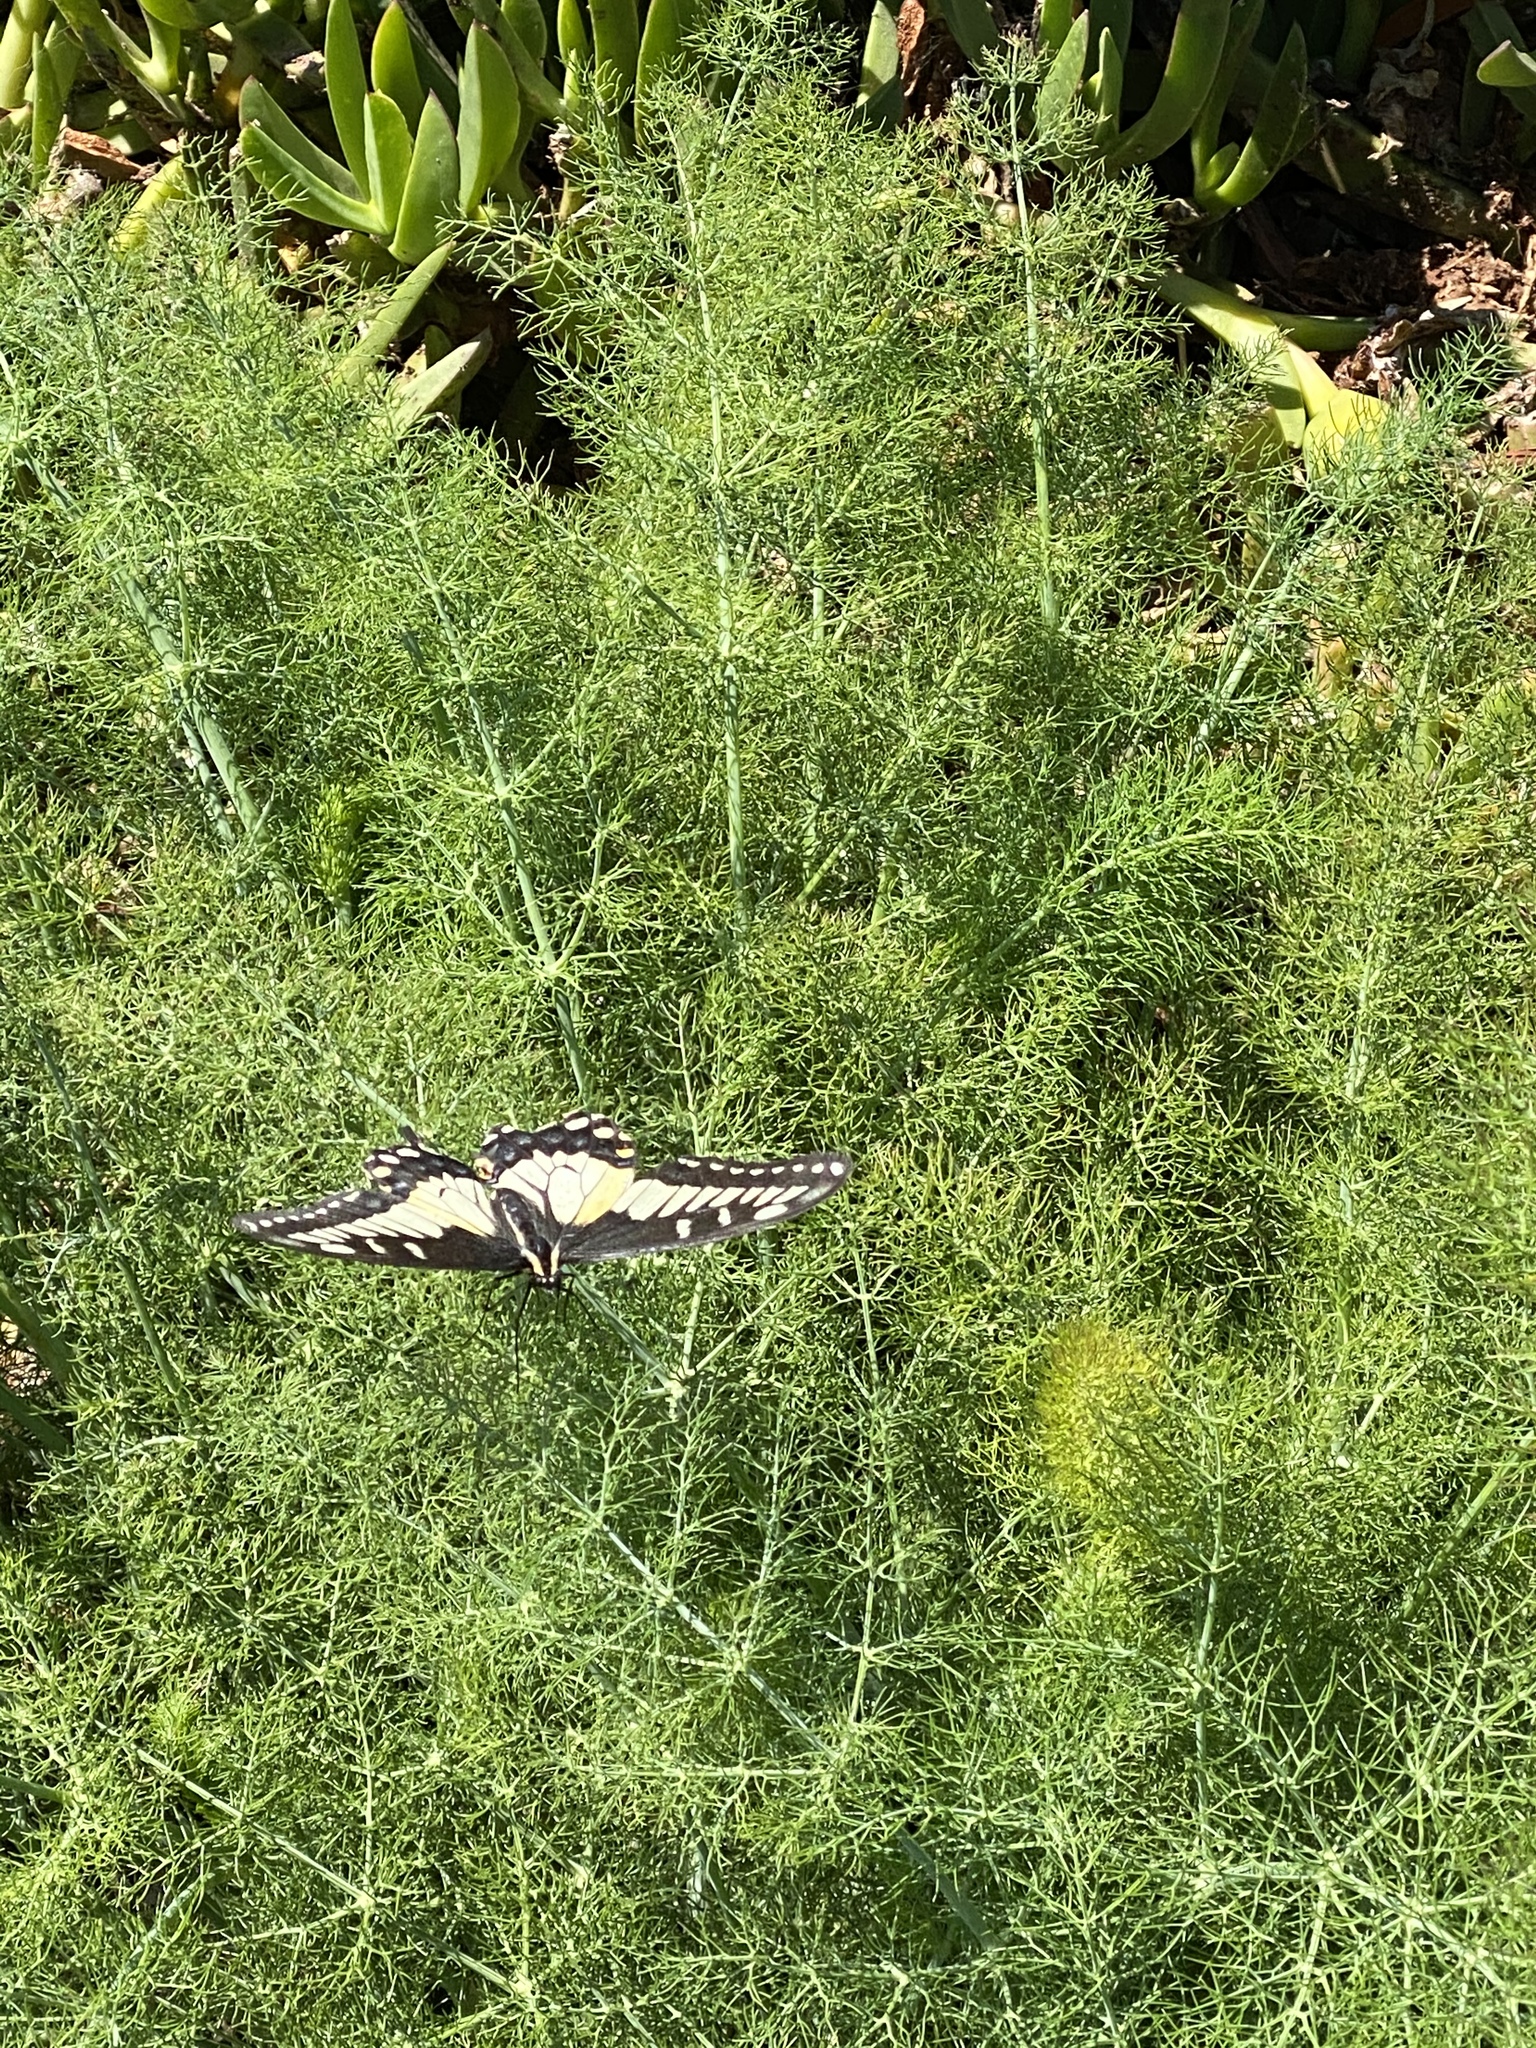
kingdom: Animalia
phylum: Arthropoda
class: Insecta
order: Lepidoptera
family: Papilionidae
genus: Papilio
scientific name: Papilio zelicaon
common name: Anise swallowtail
